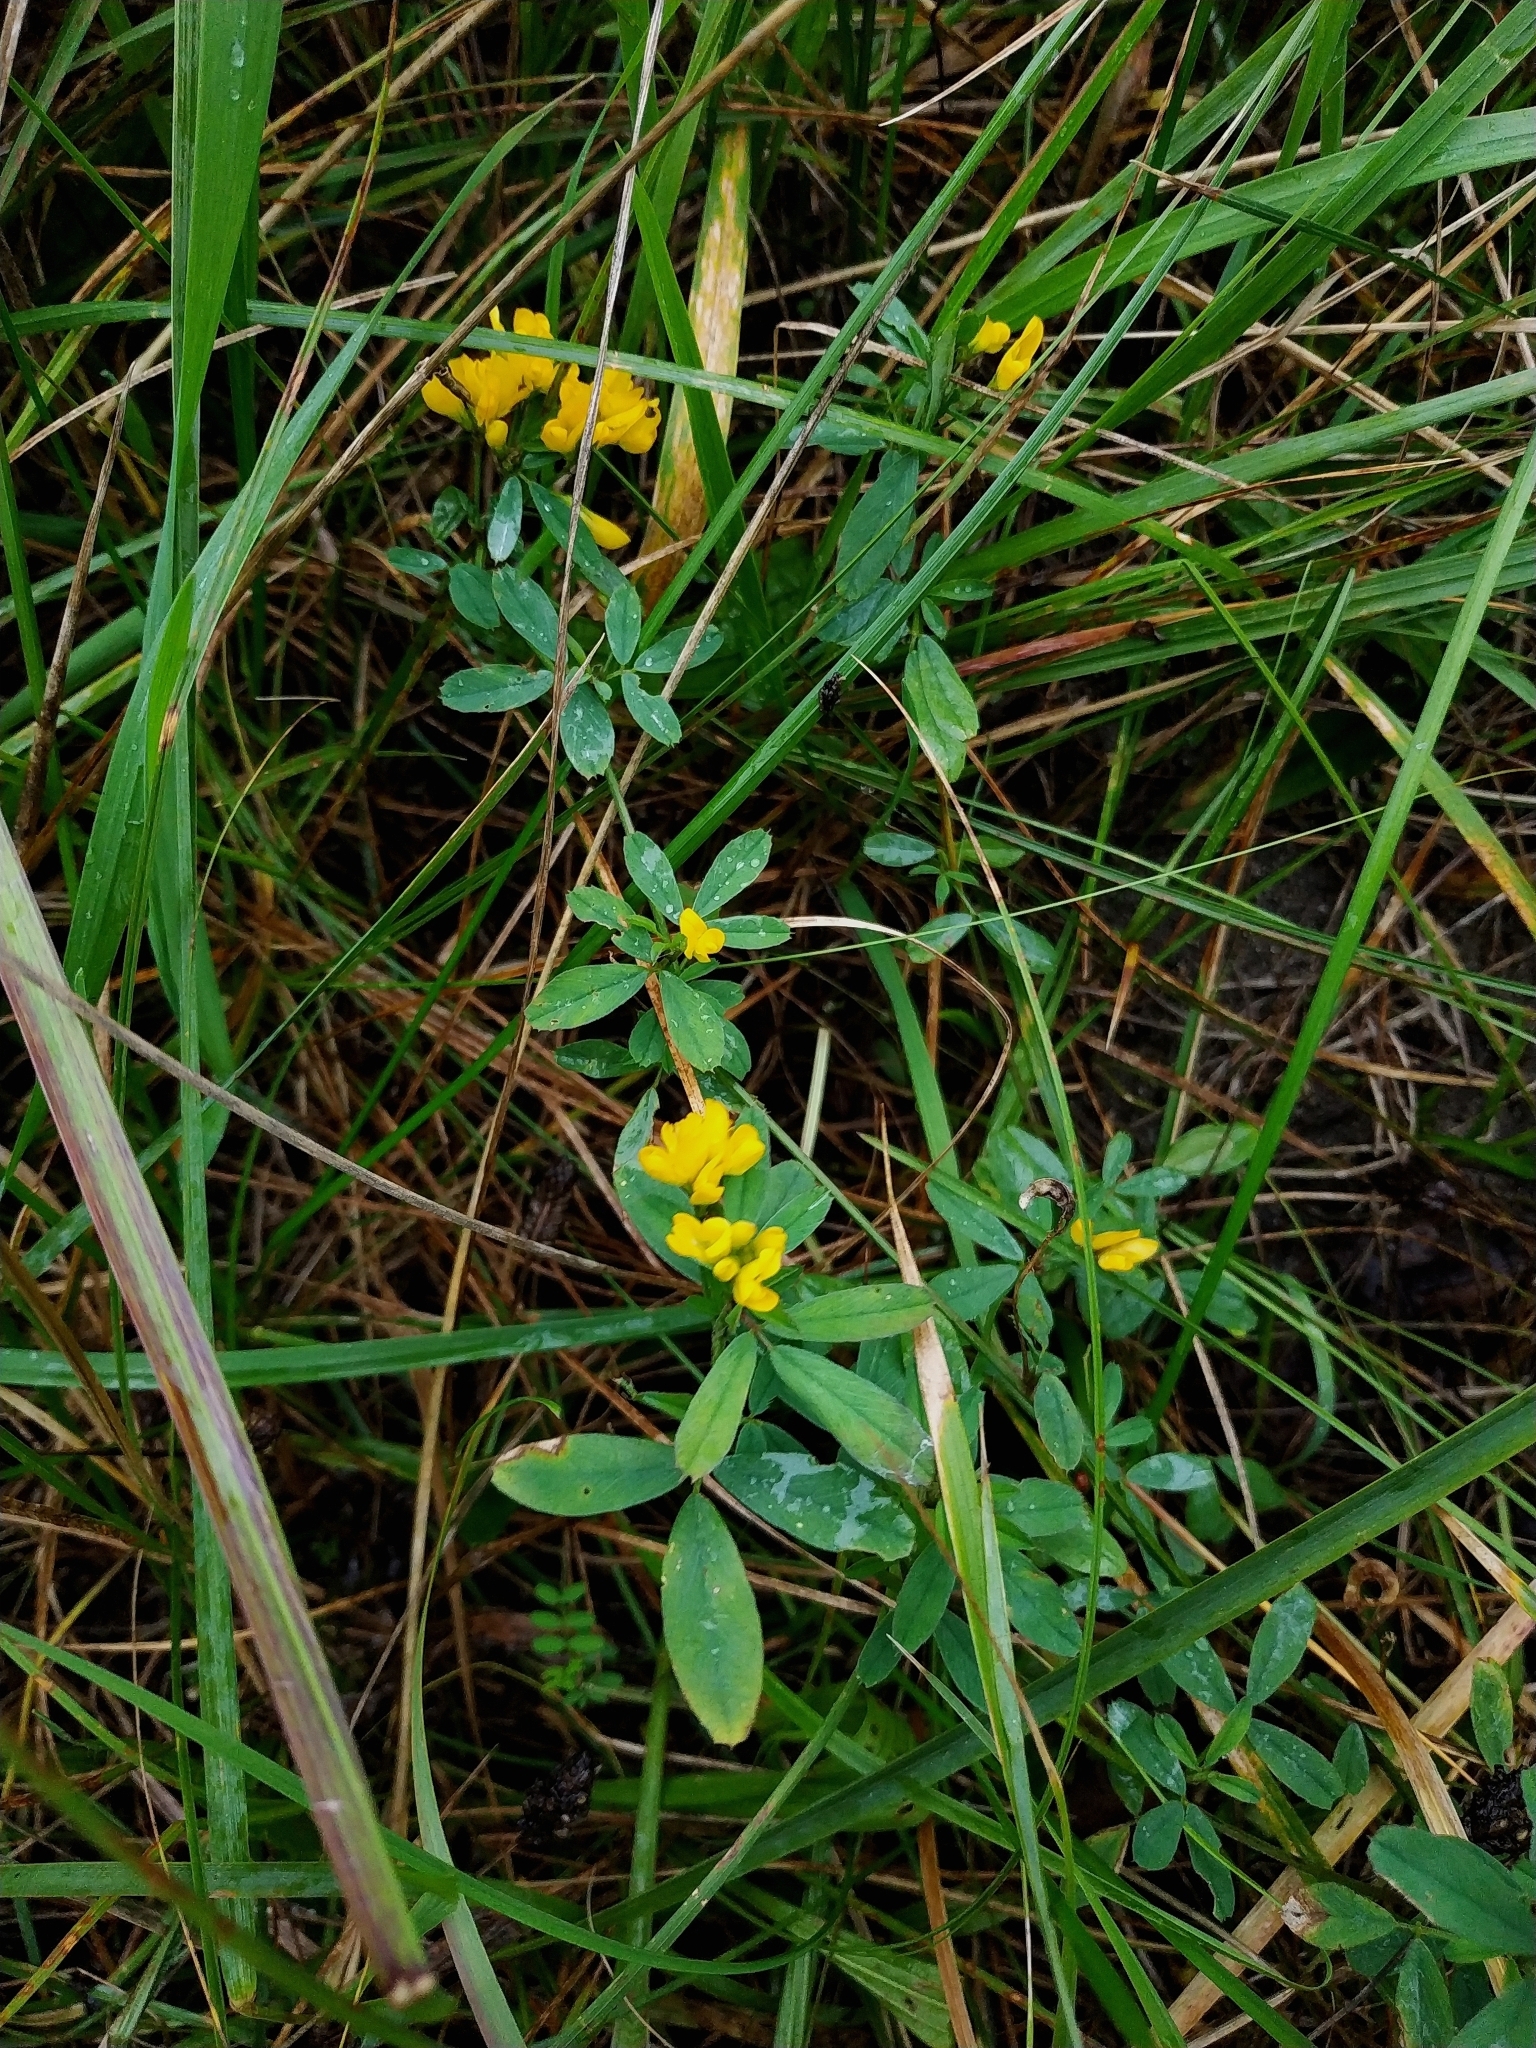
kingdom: Plantae
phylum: Tracheophyta
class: Magnoliopsida
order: Fabales
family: Fabaceae
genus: Medicago
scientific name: Medicago falcata
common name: Sickle medick
